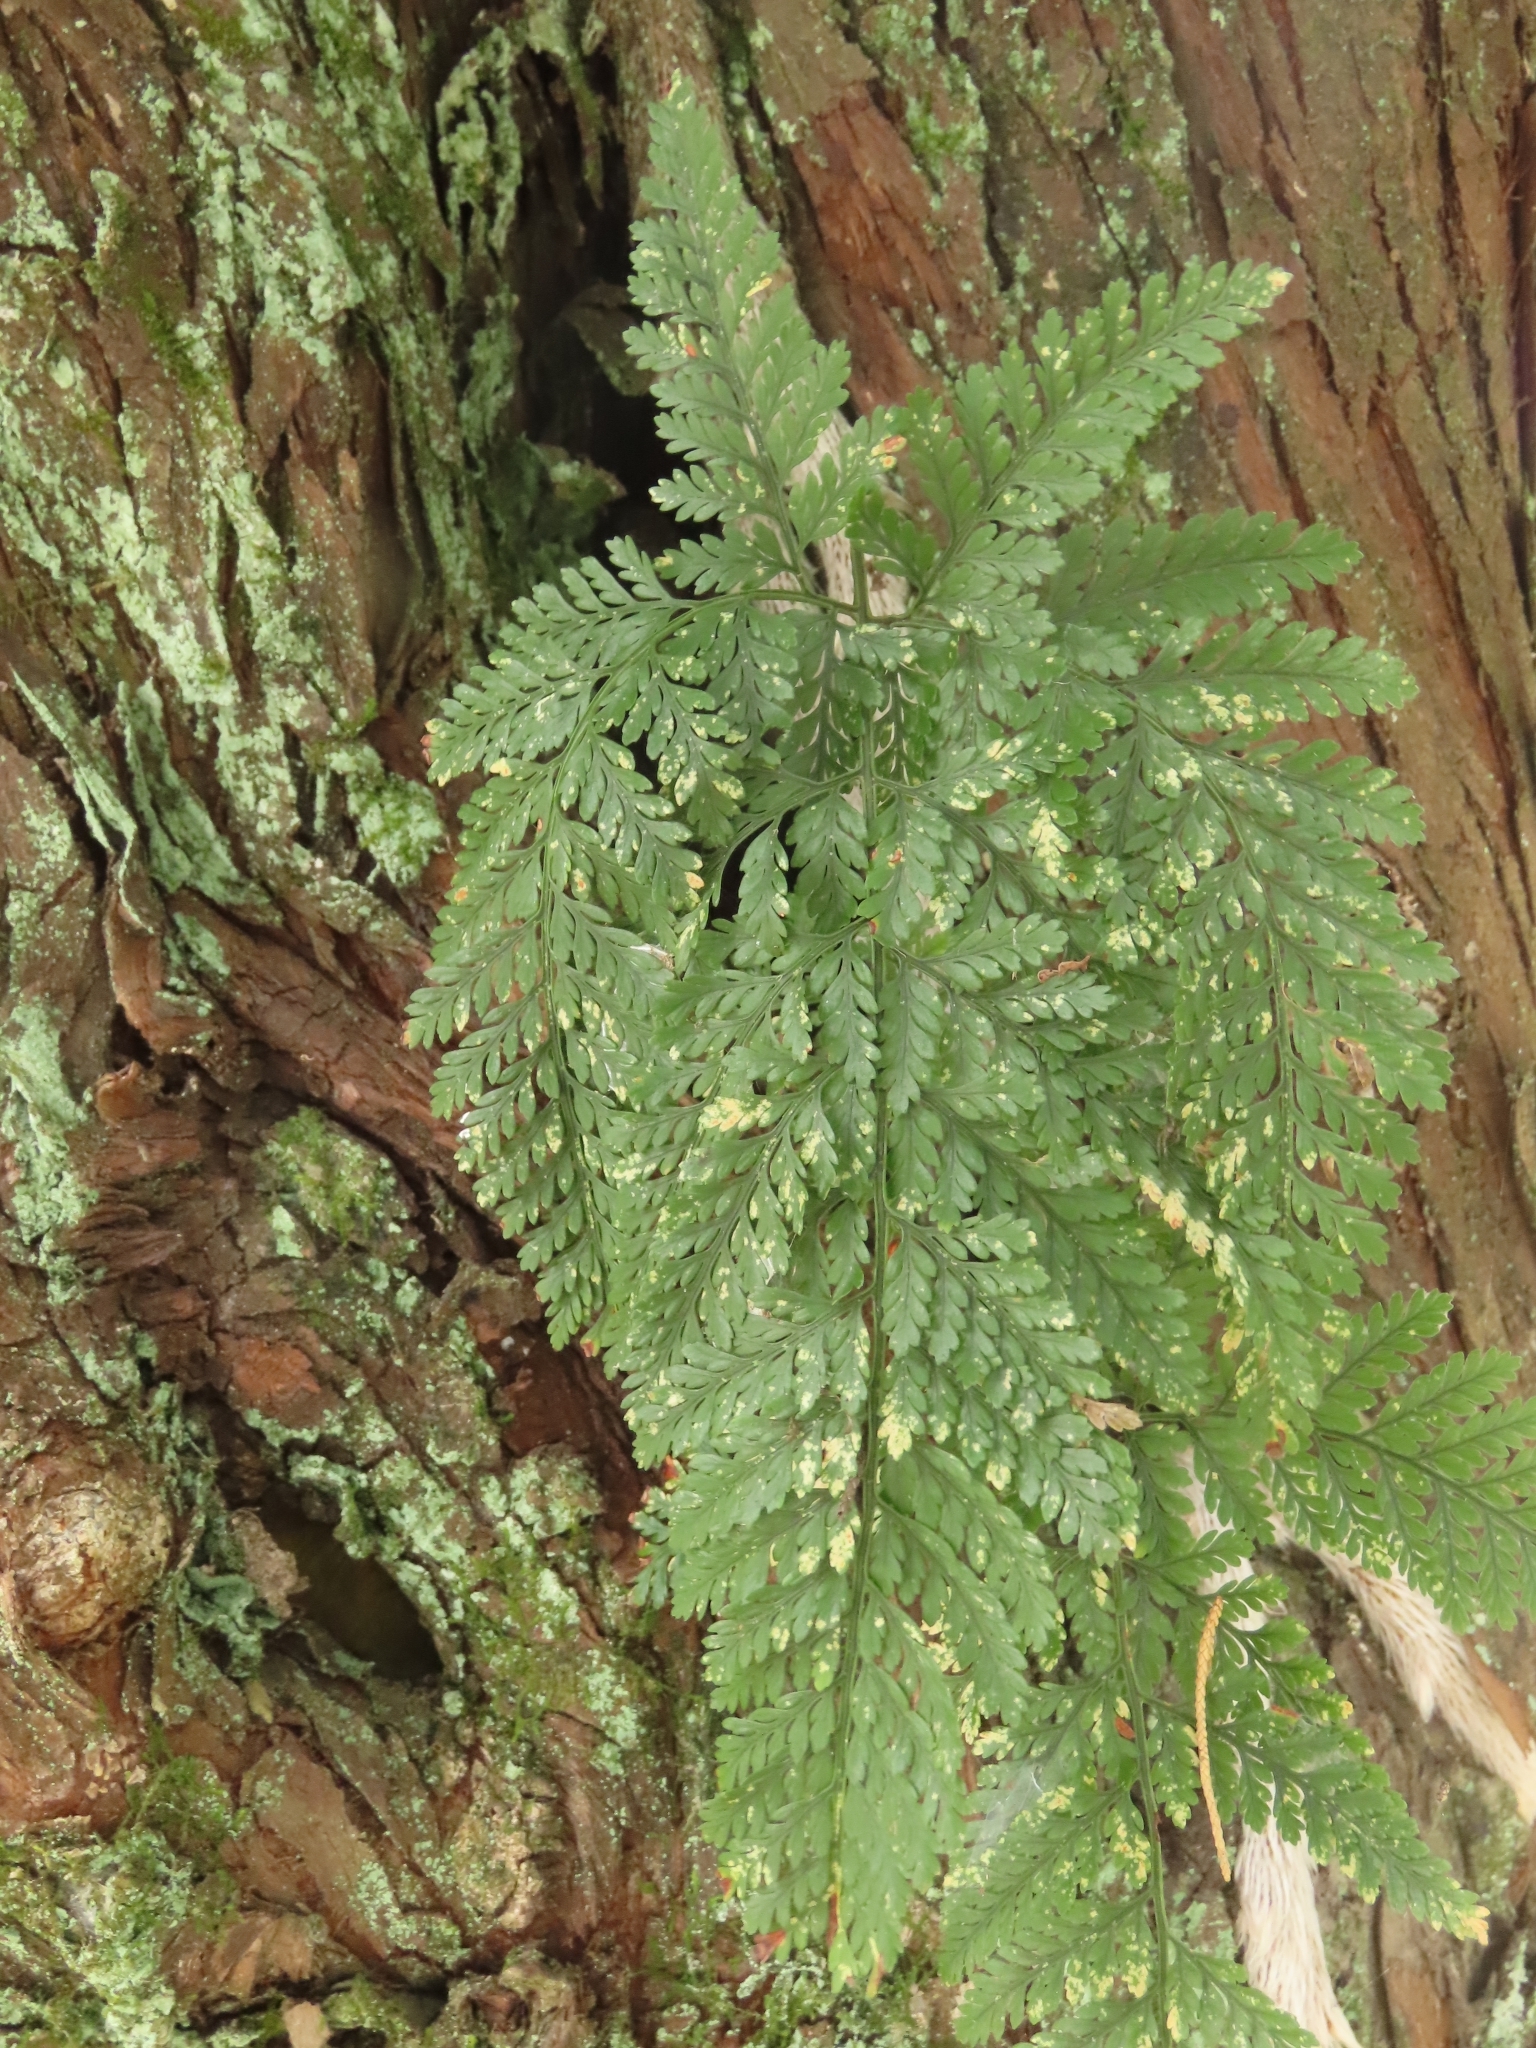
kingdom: Plantae
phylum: Tracheophyta
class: Polypodiopsida
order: Polypodiales
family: Davalliaceae
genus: Davallia
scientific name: Davallia griffithiana
